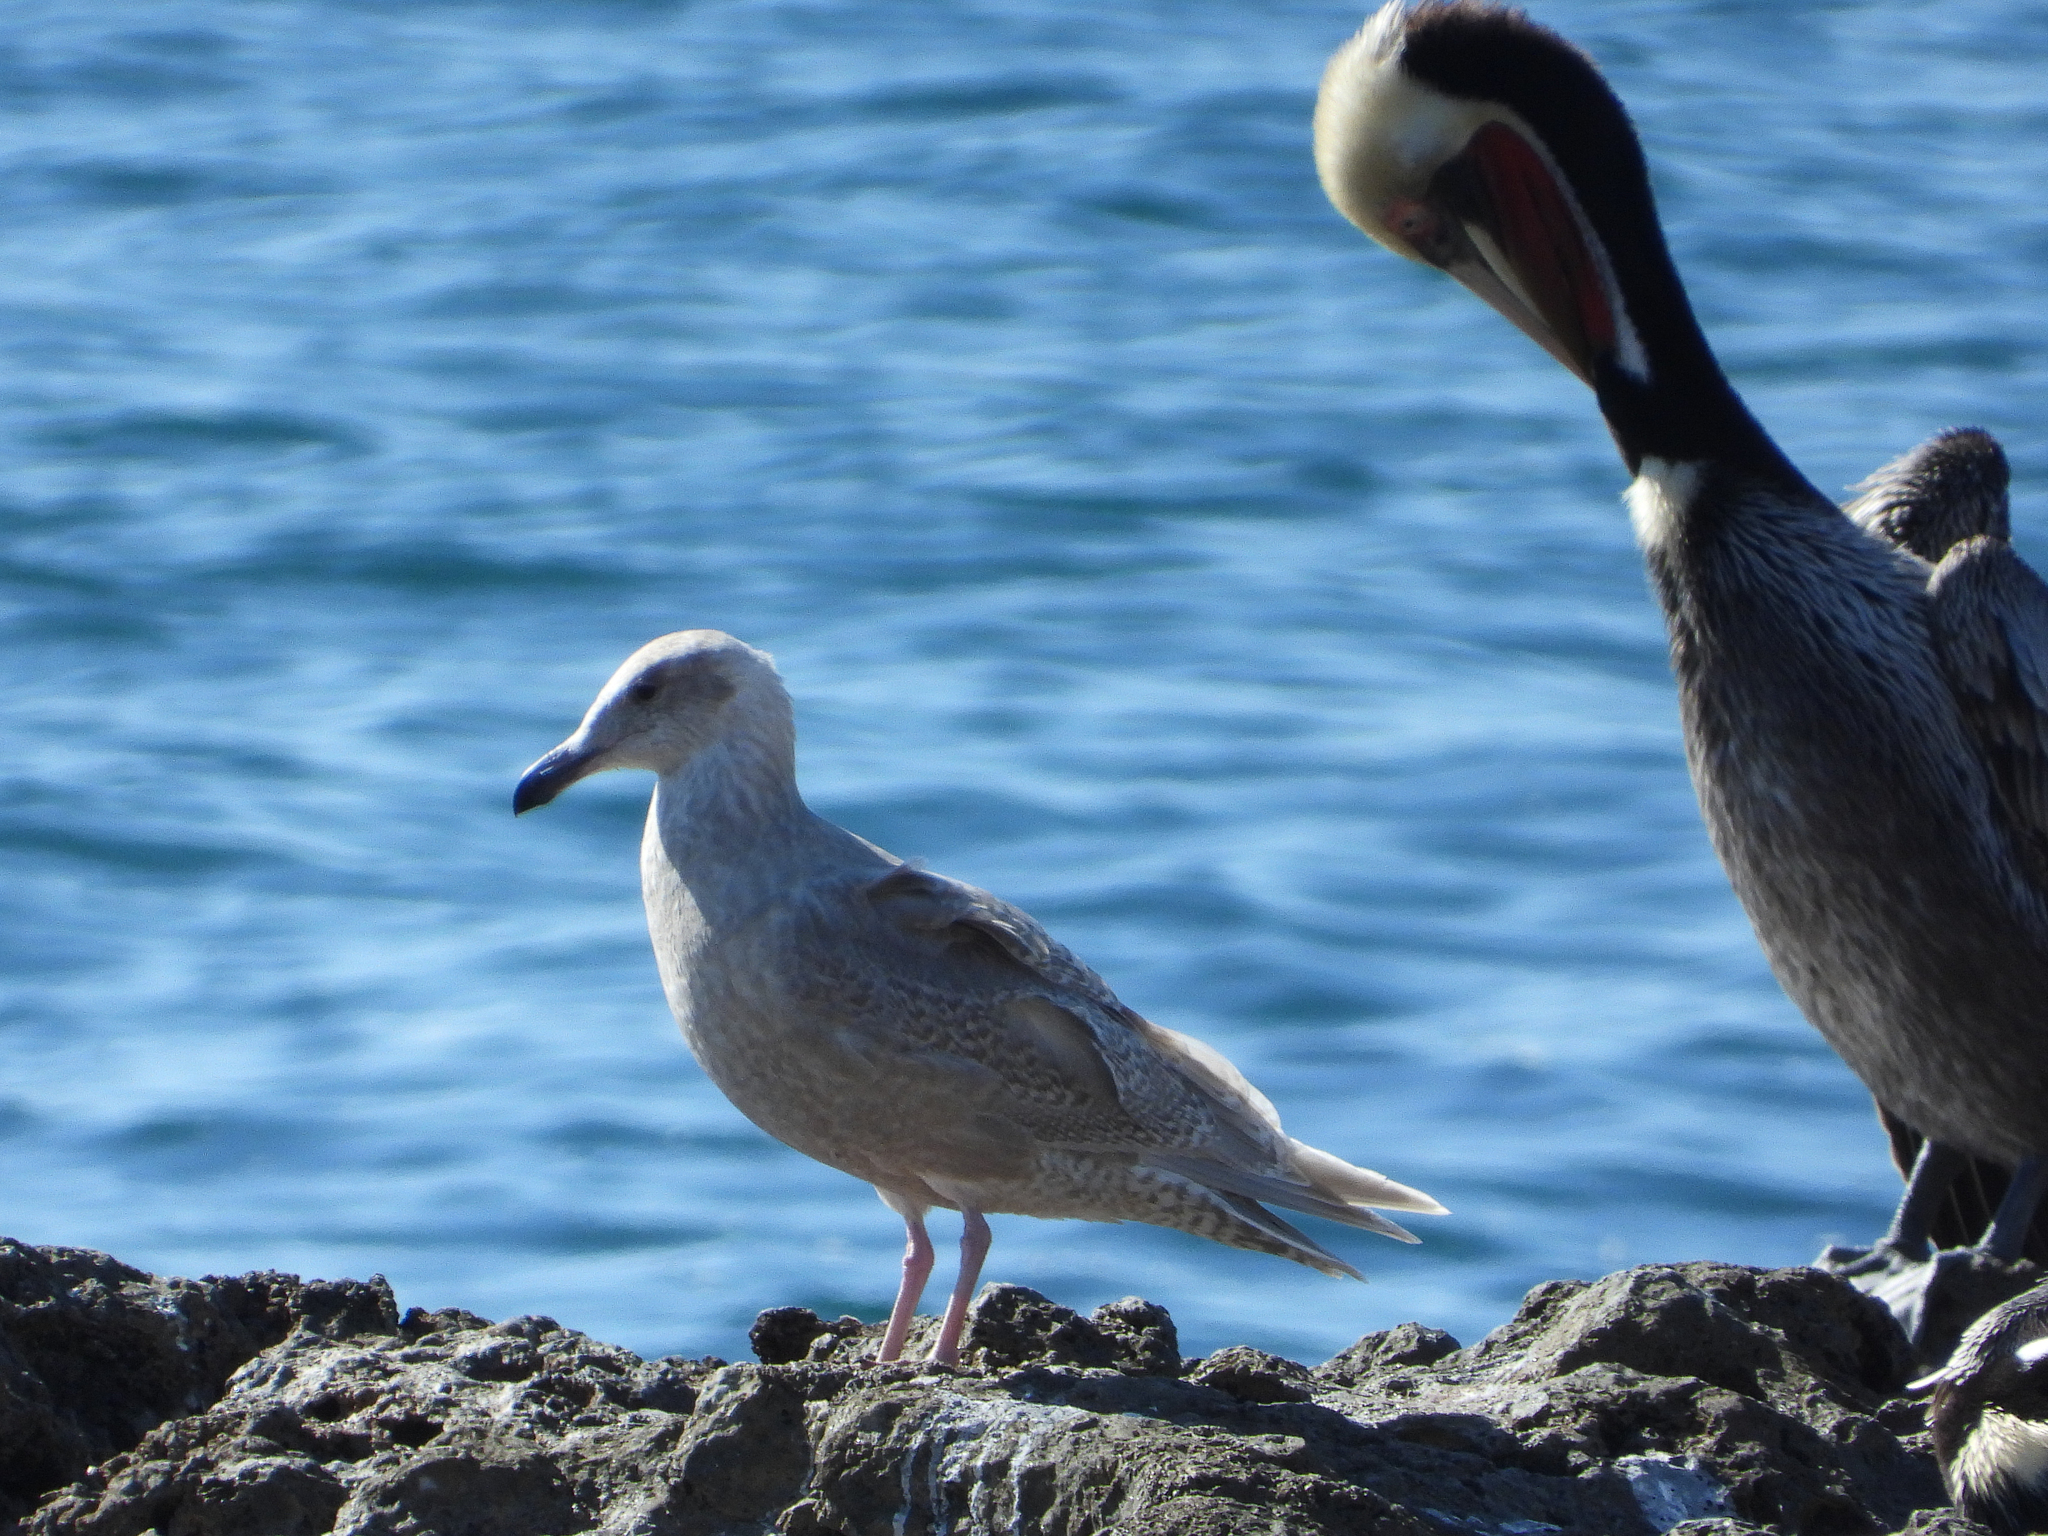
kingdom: Animalia
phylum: Chordata
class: Aves
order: Charadriiformes
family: Laridae
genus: Larus
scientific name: Larus glaucescens
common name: Glaucous-winged gull
